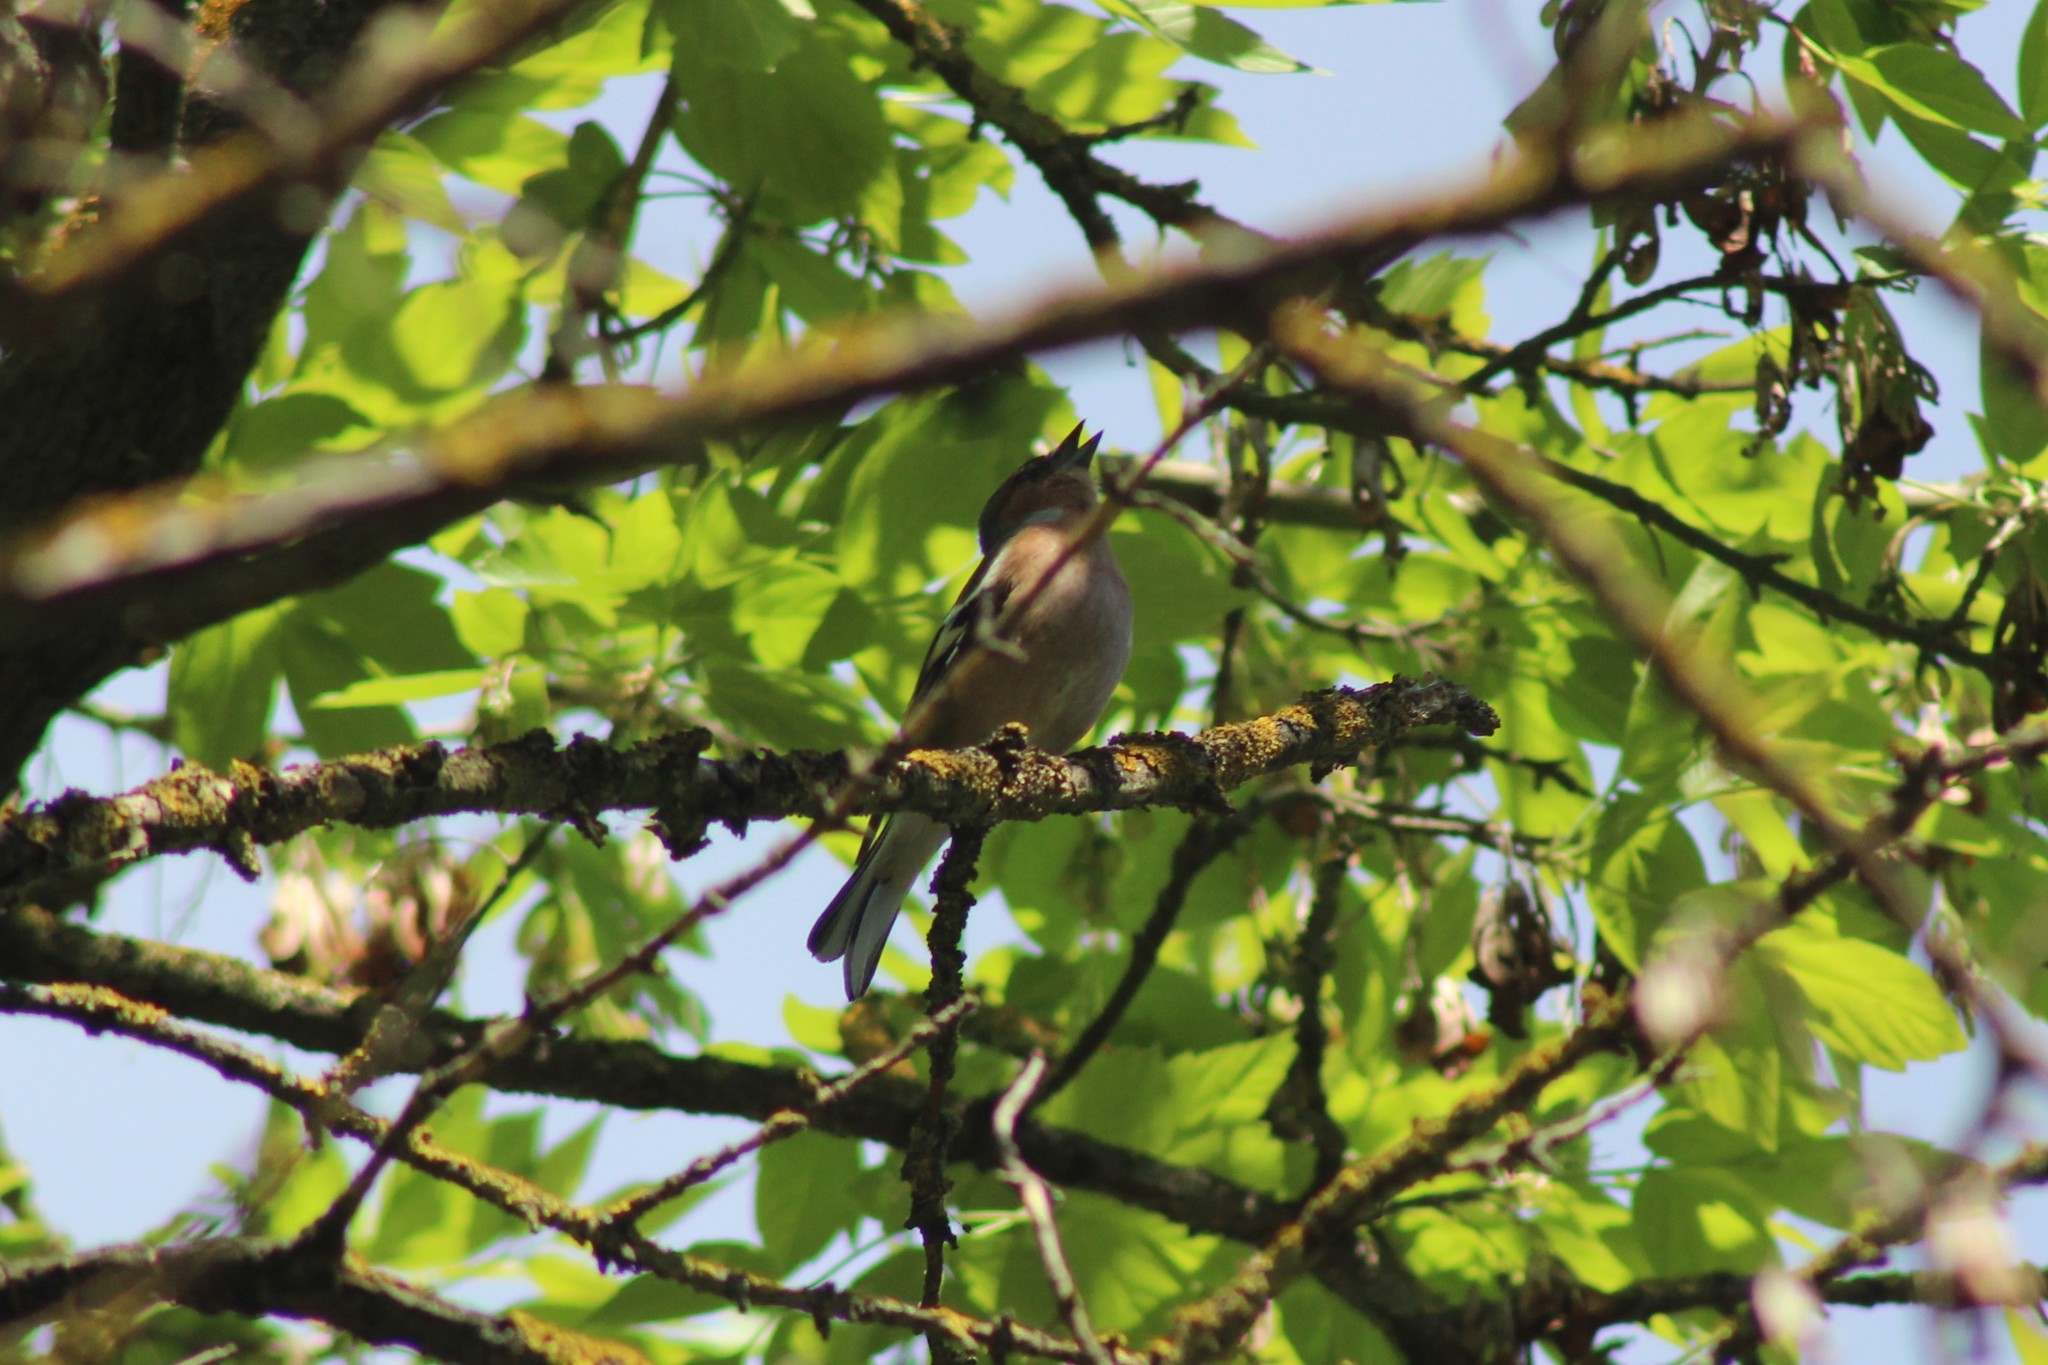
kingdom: Animalia
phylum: Chordata
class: Aves
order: Passeriformes
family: Fringillidae
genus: Fringilla
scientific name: Fringilla coelebs
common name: Common chaffinch
